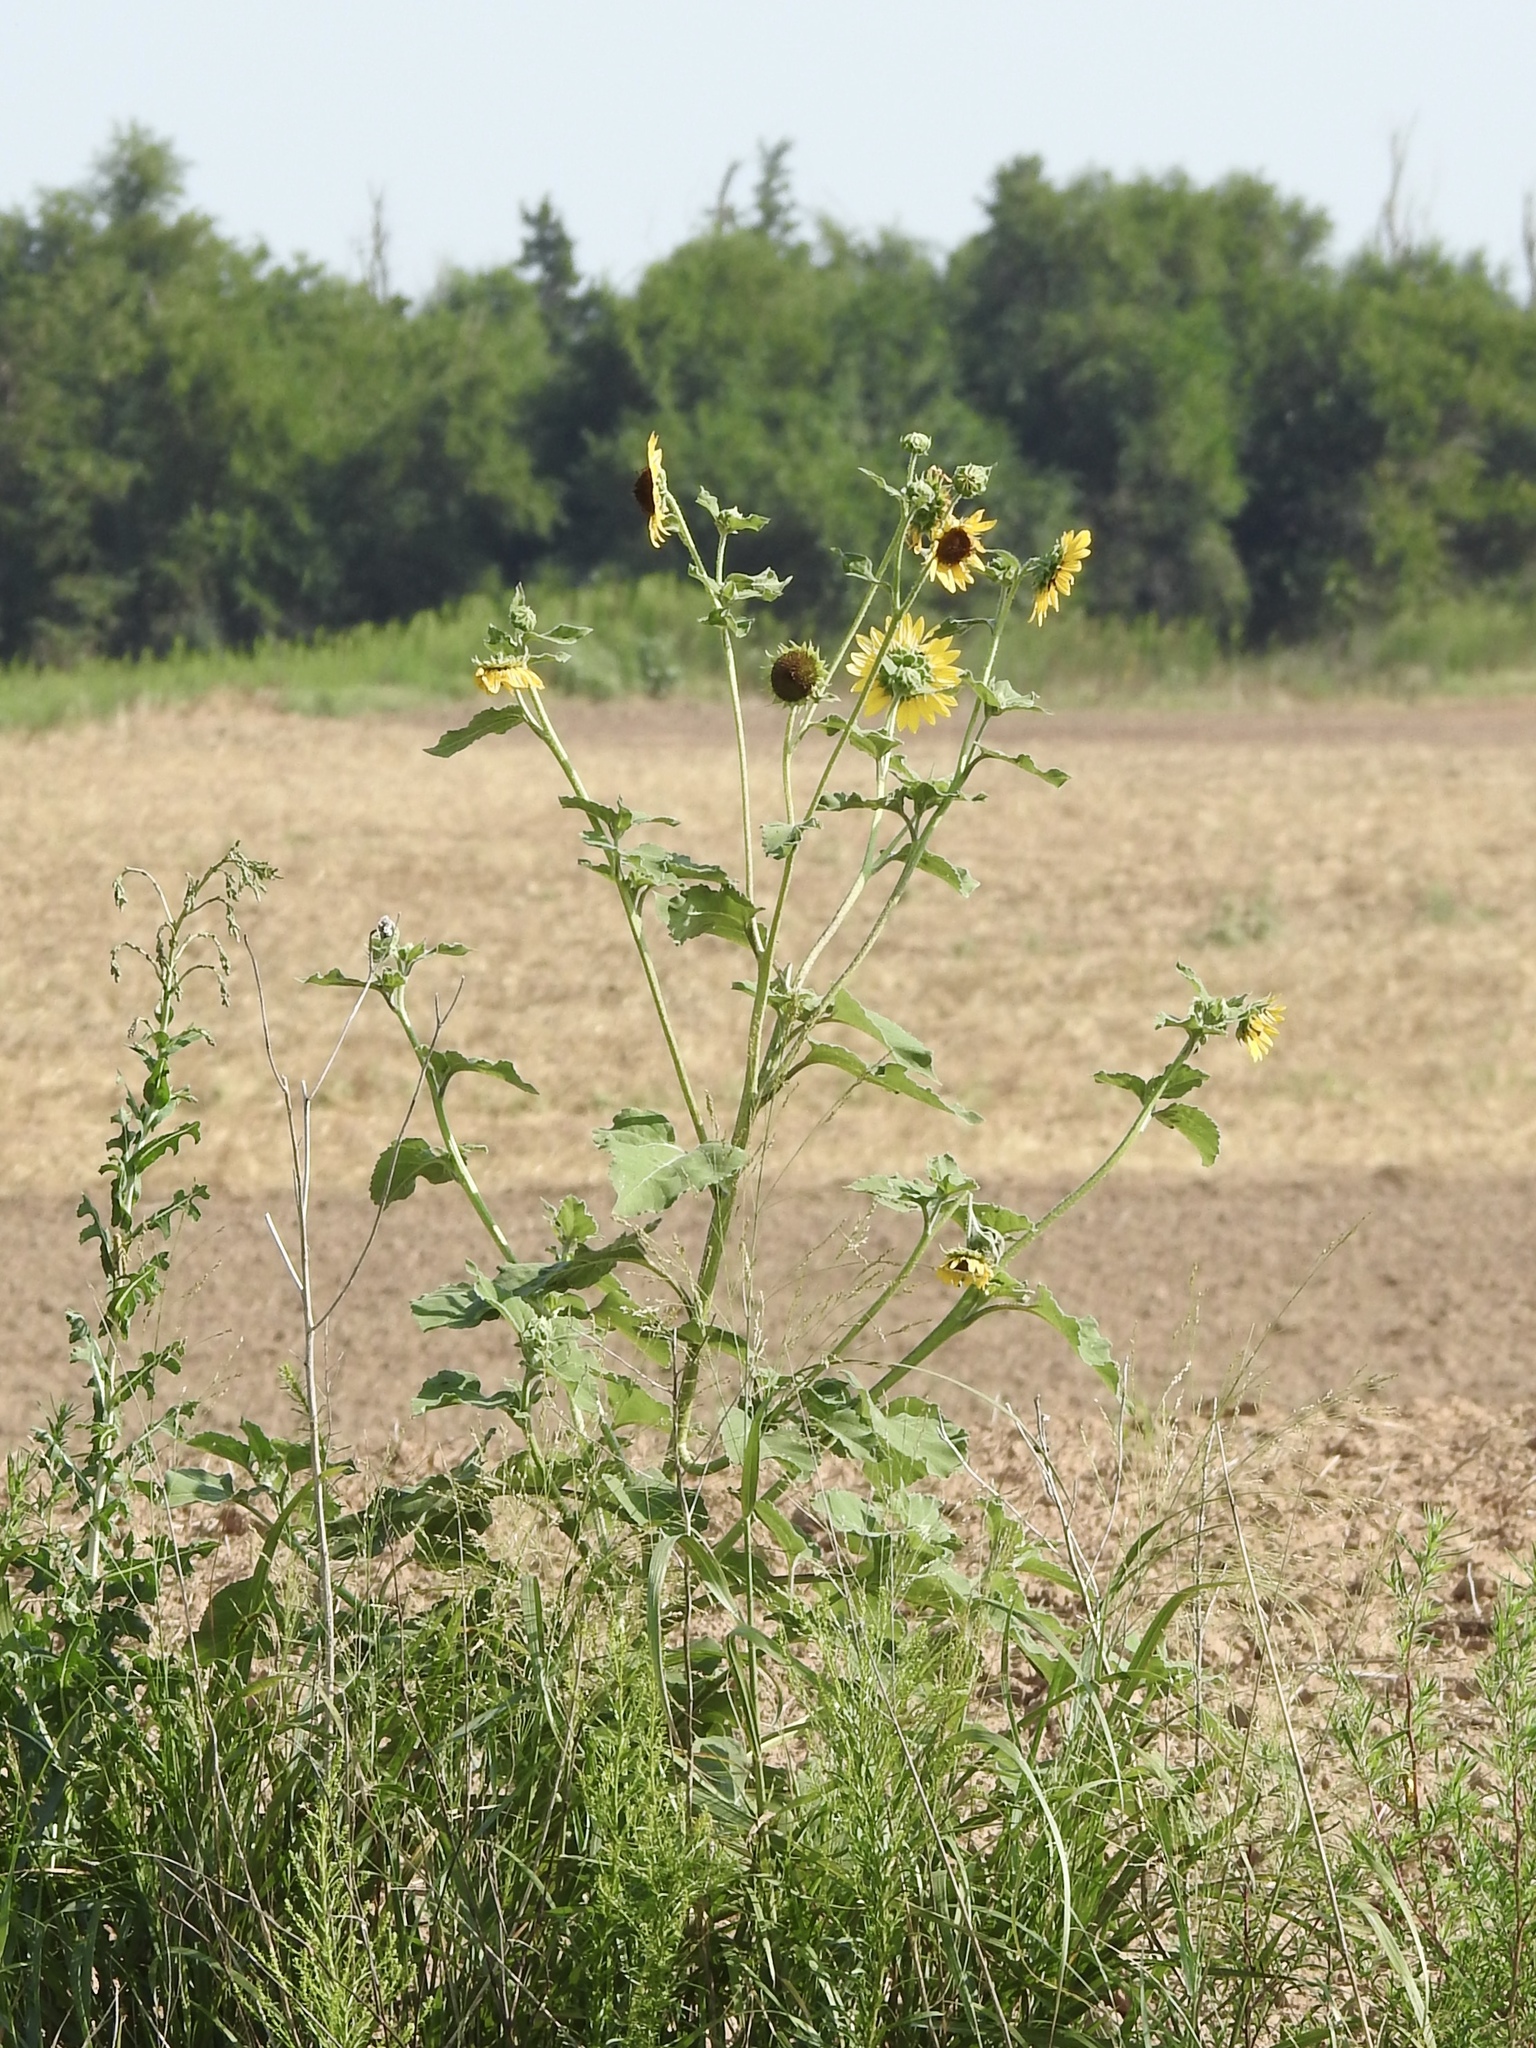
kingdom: Plantae
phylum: Tracheophyta
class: Magnoliopsida
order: Asterales
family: Asteraceae
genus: Helianthus
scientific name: Helianthus annuus
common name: Sunflower
